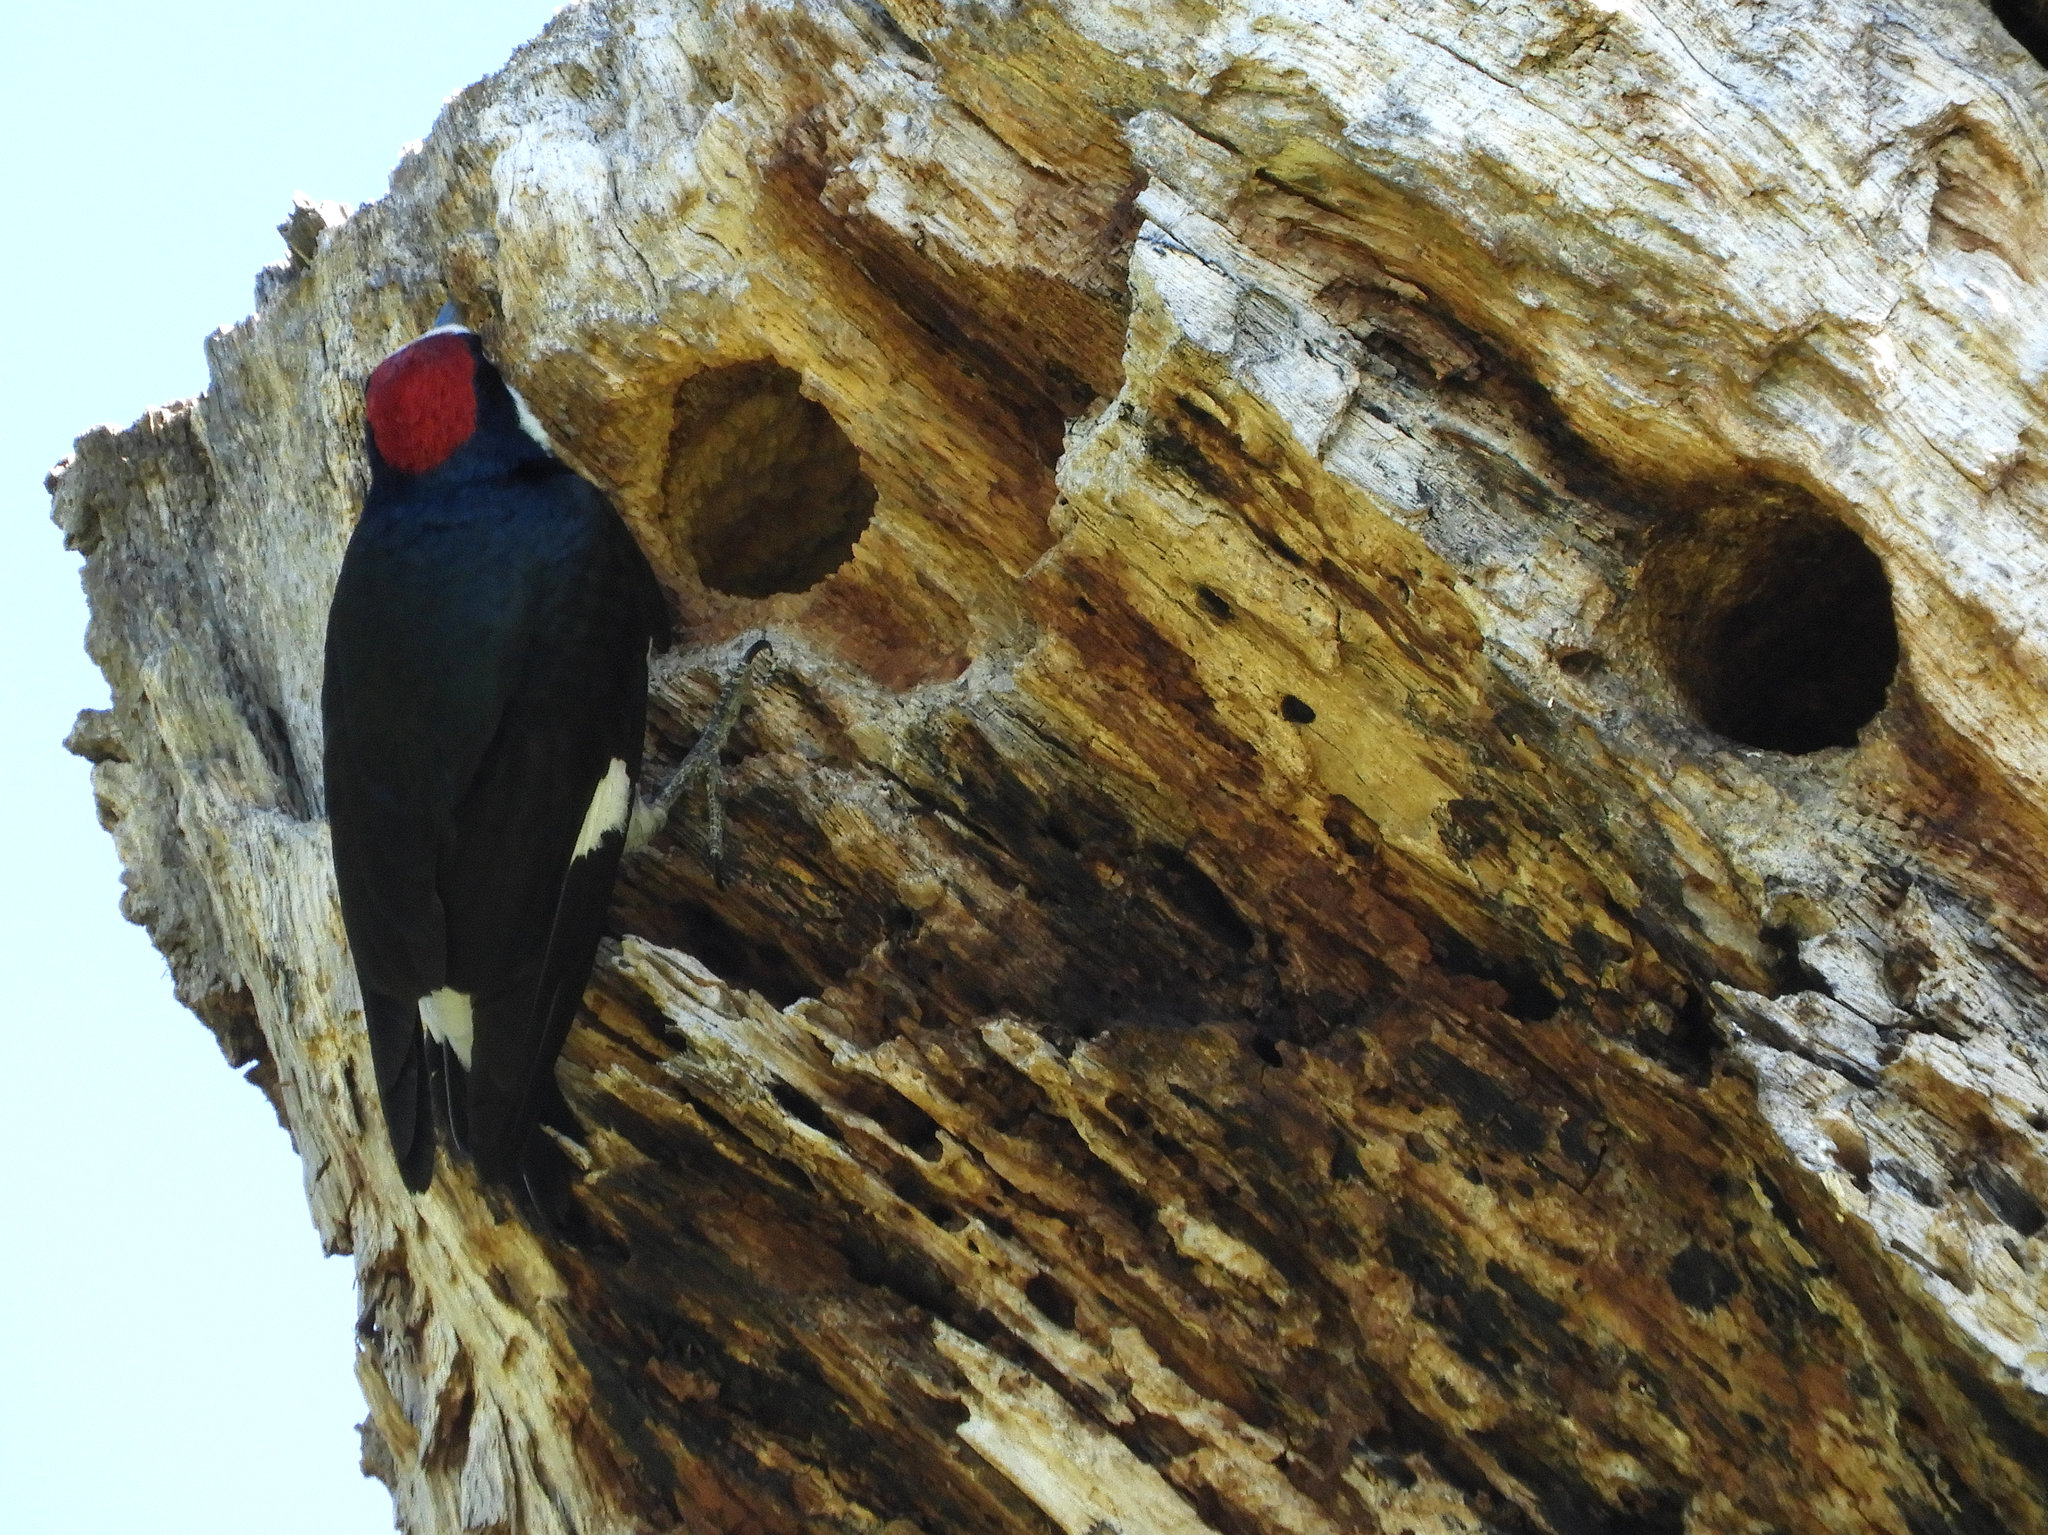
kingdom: Animalia
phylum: Chordata
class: Aves
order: Piciformes
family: Picidae
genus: Melanerpes
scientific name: Melanerpes formicivorus
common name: Acorn woodpecker
